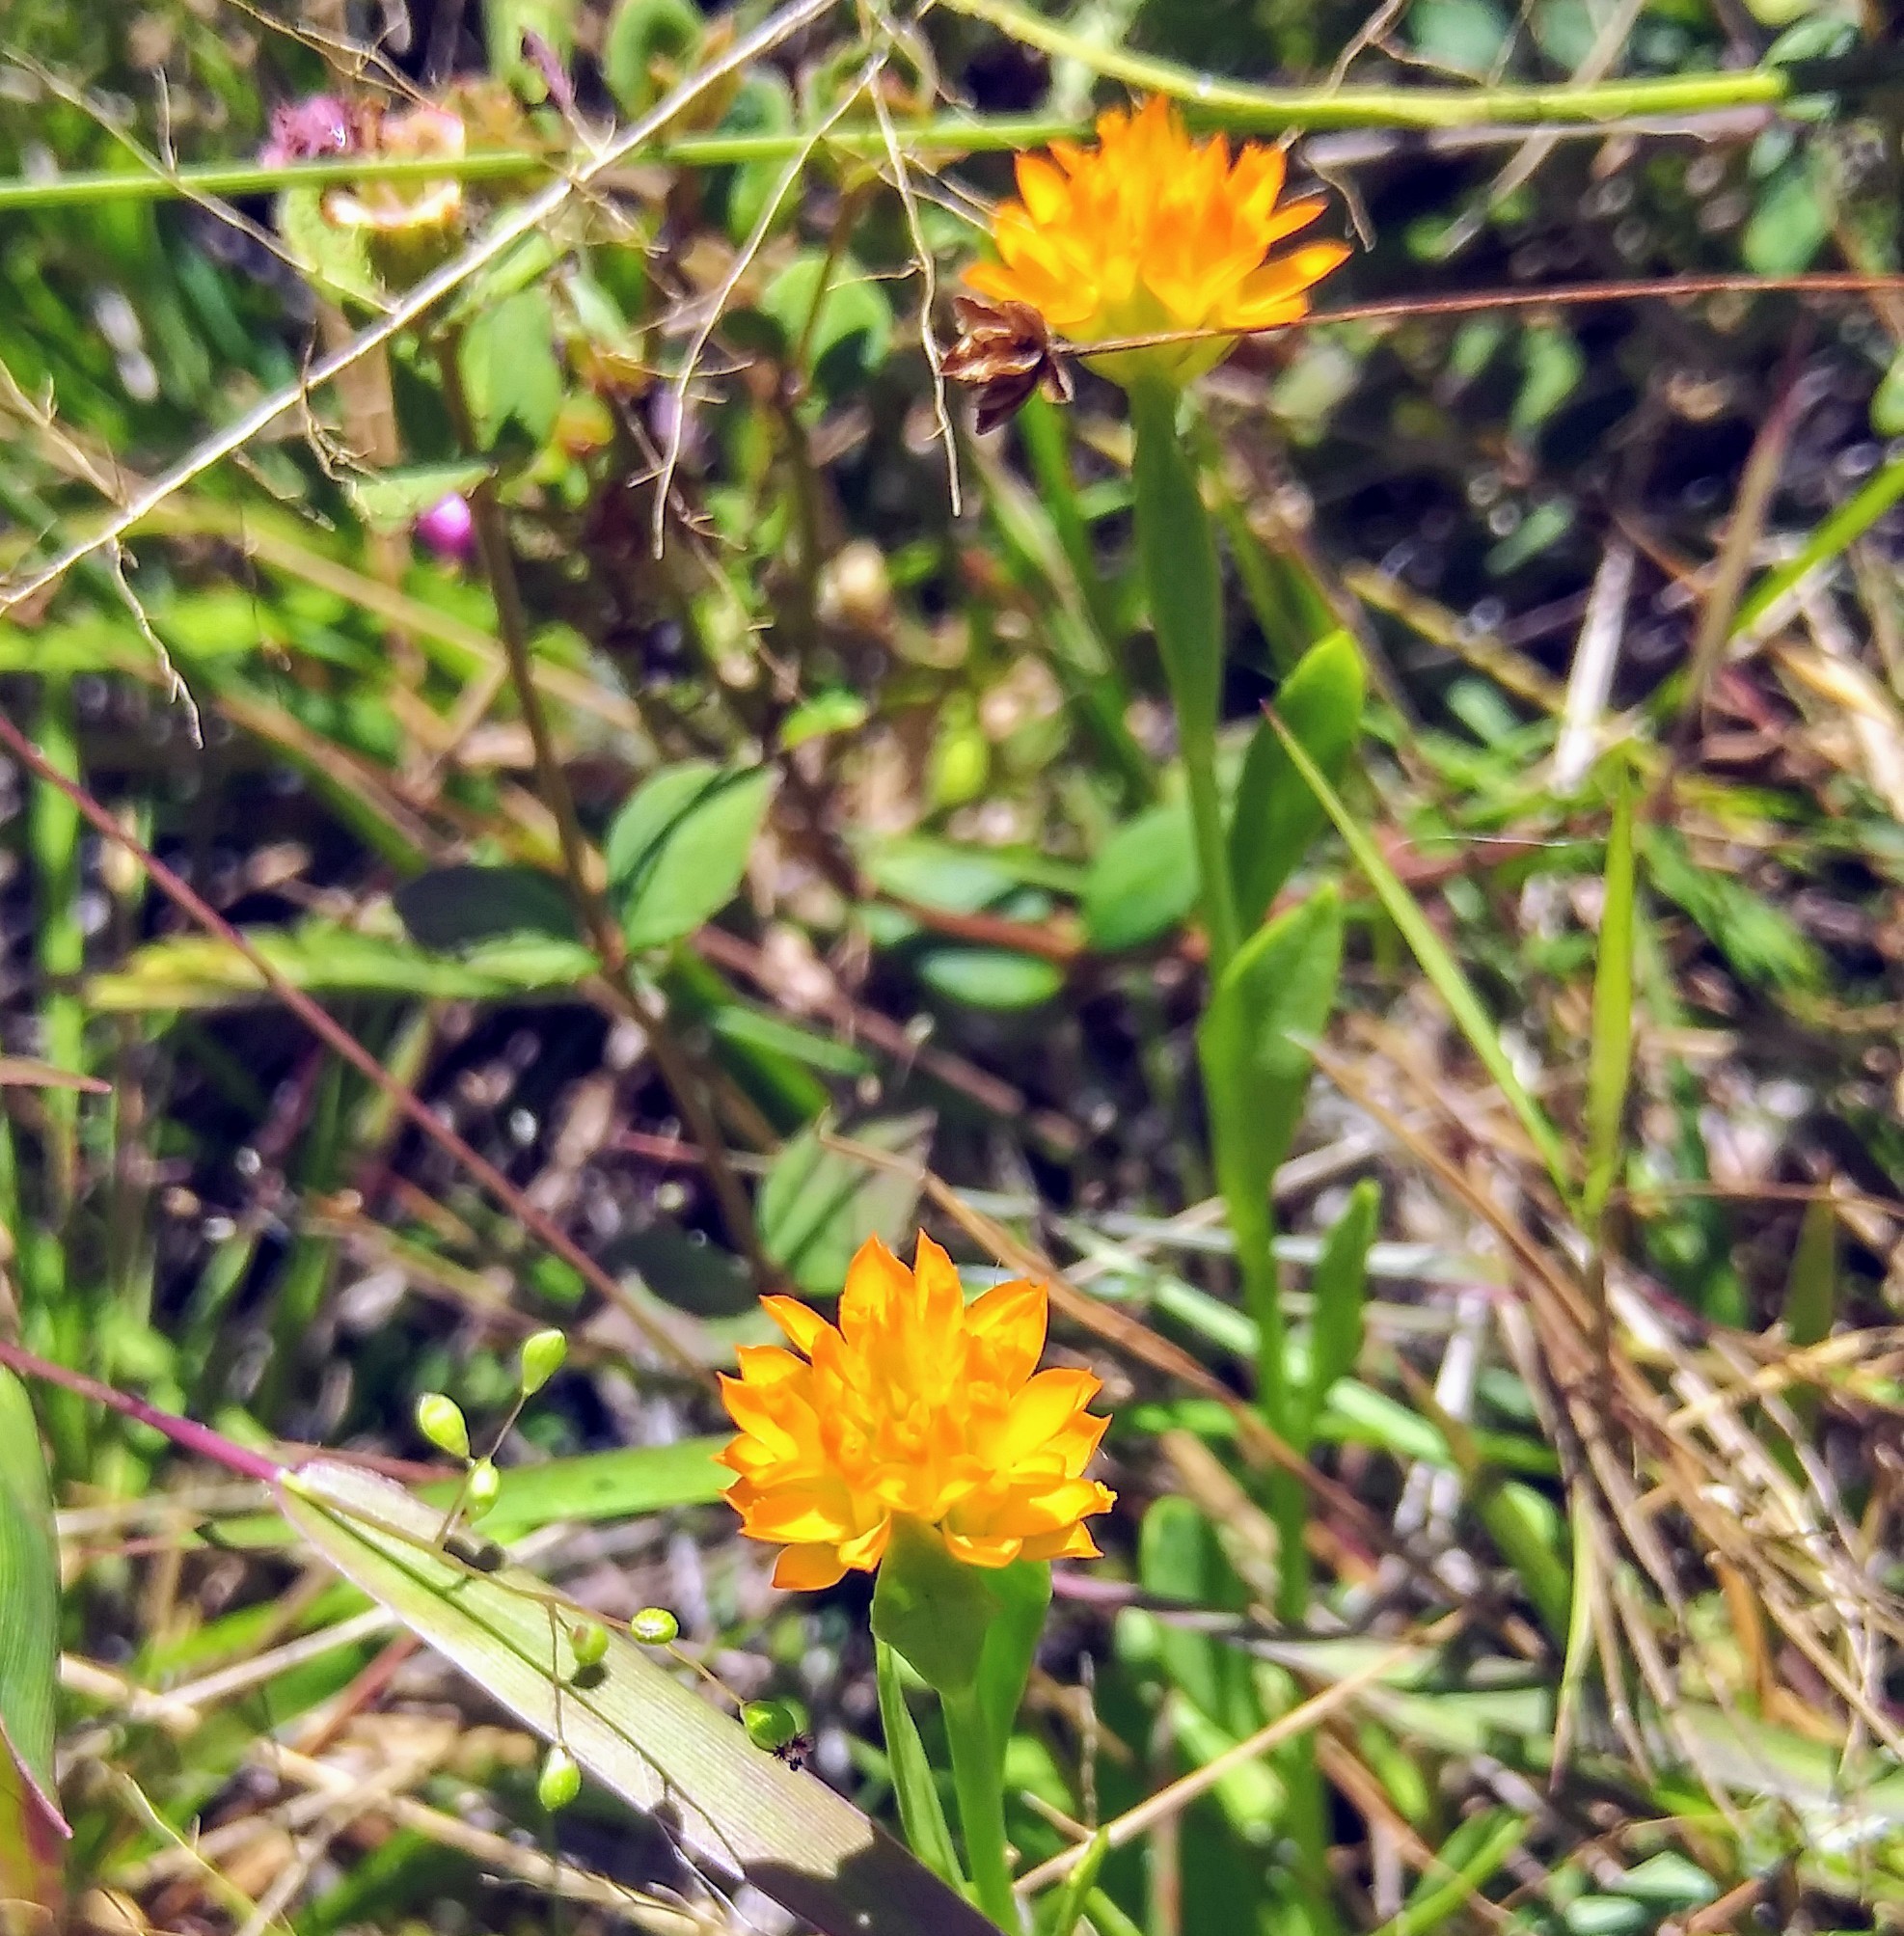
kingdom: Plantae
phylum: Tracheophyta
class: Magnoliopsida
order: Fabales
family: Polygalaceae
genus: Polygala
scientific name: Polygala lutea
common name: Orange milkwort
